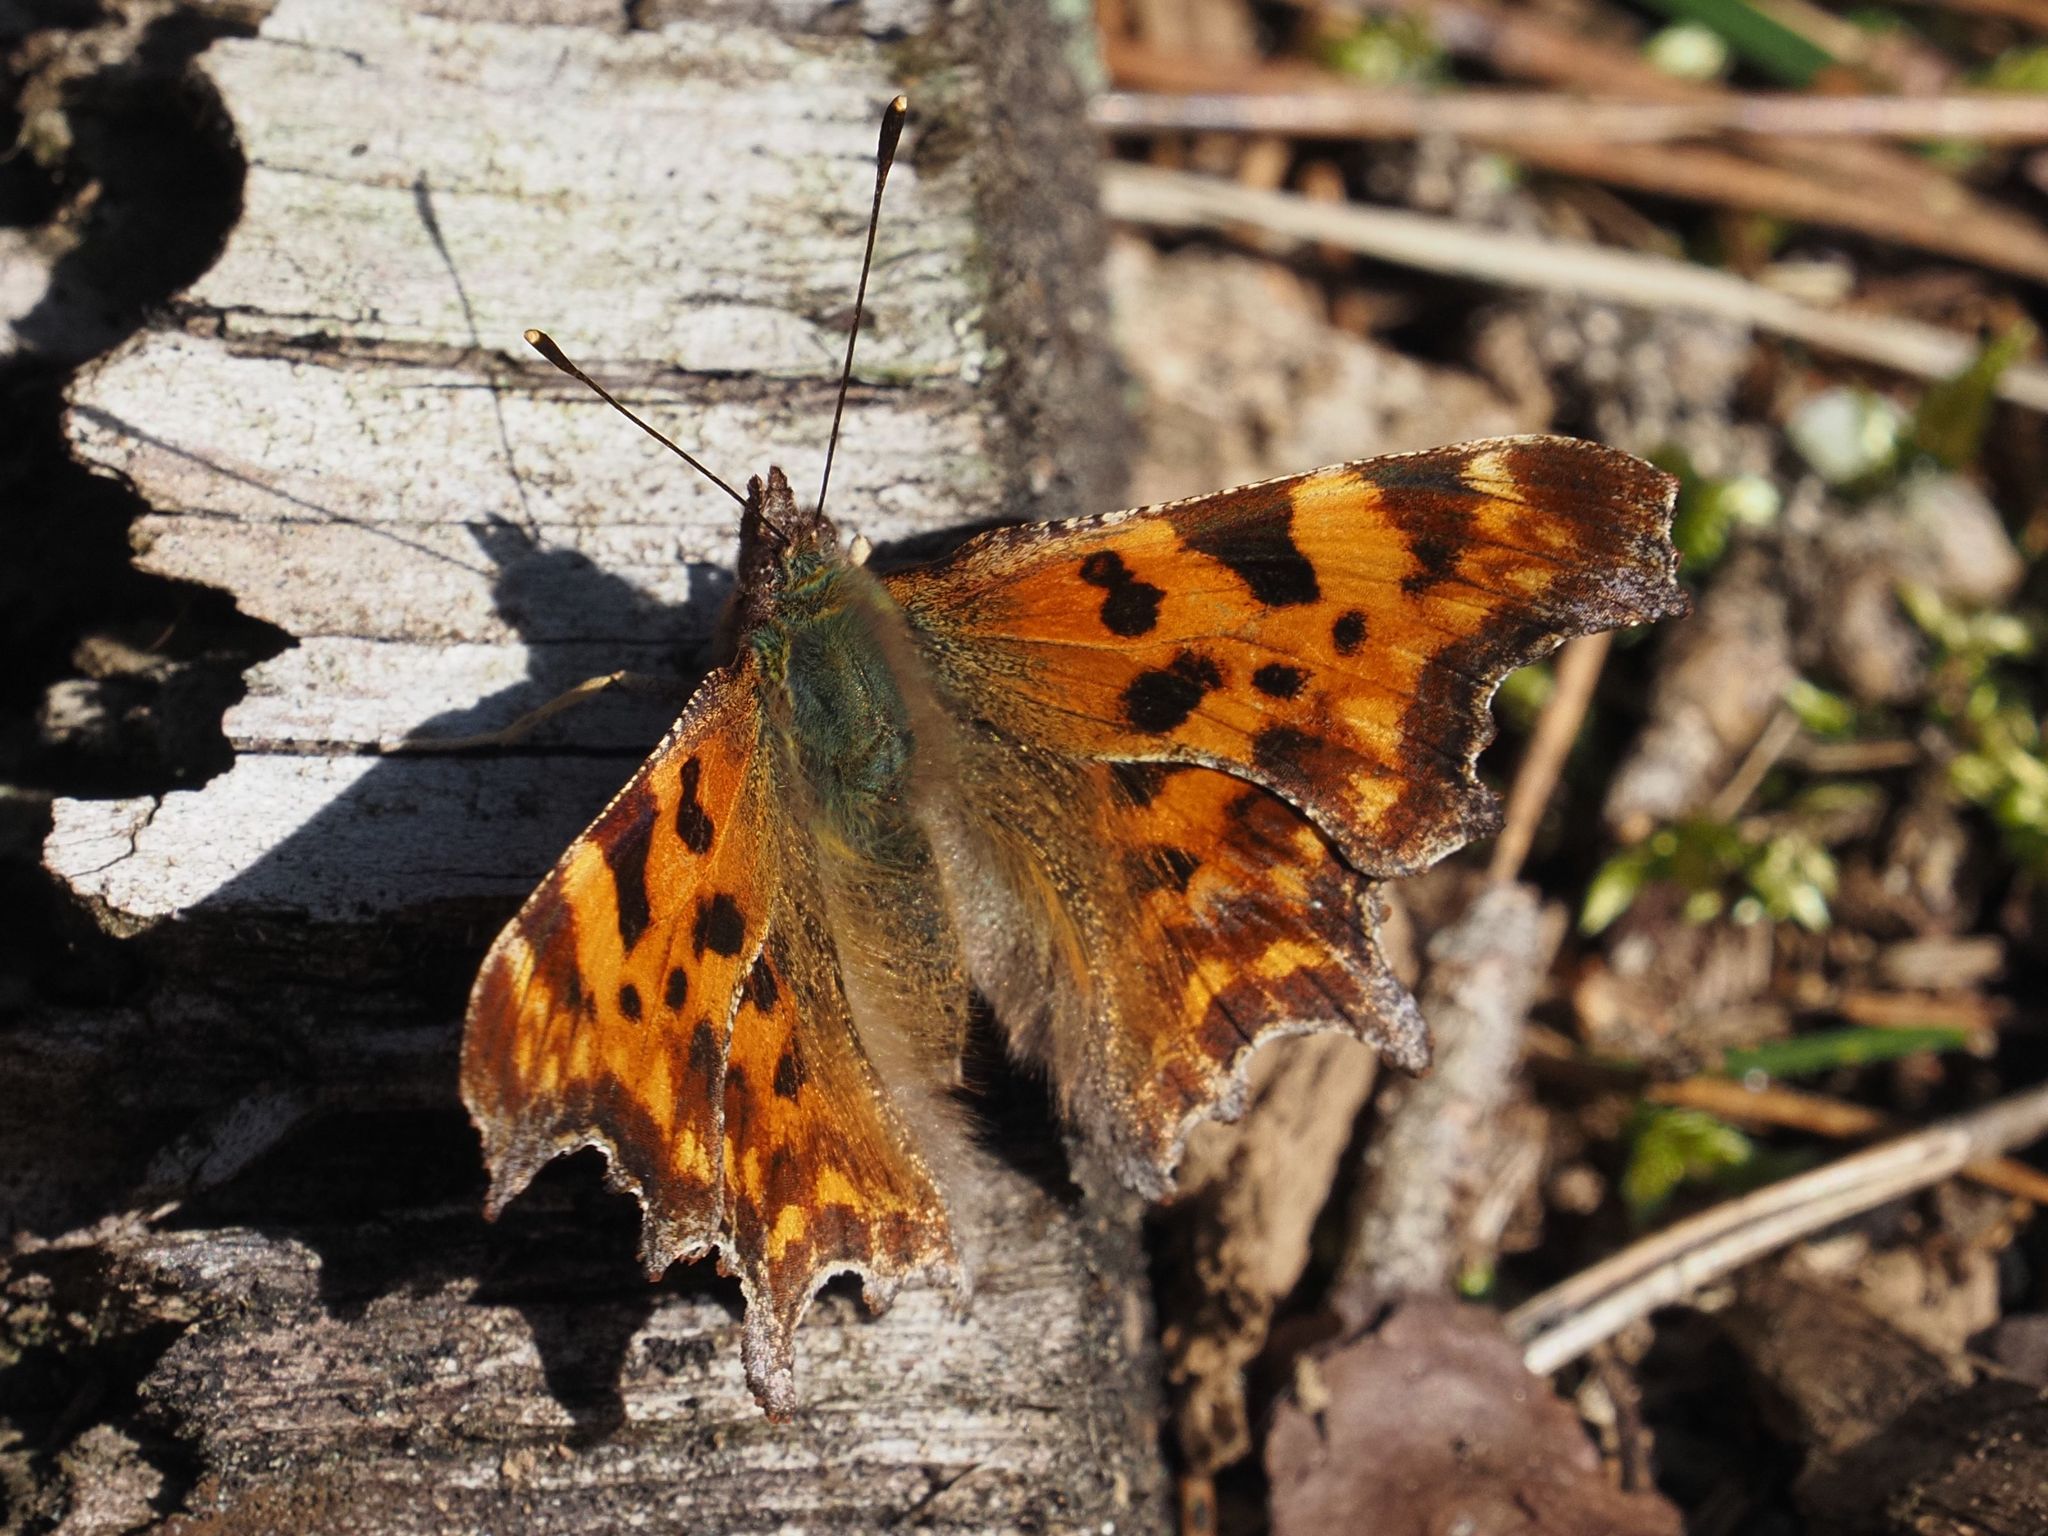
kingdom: Animalia
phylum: Arthropoda
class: Insecta
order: Lepidoptera
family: Nymphalidae
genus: Polygonia
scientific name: Polygonia c-album
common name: Comma
